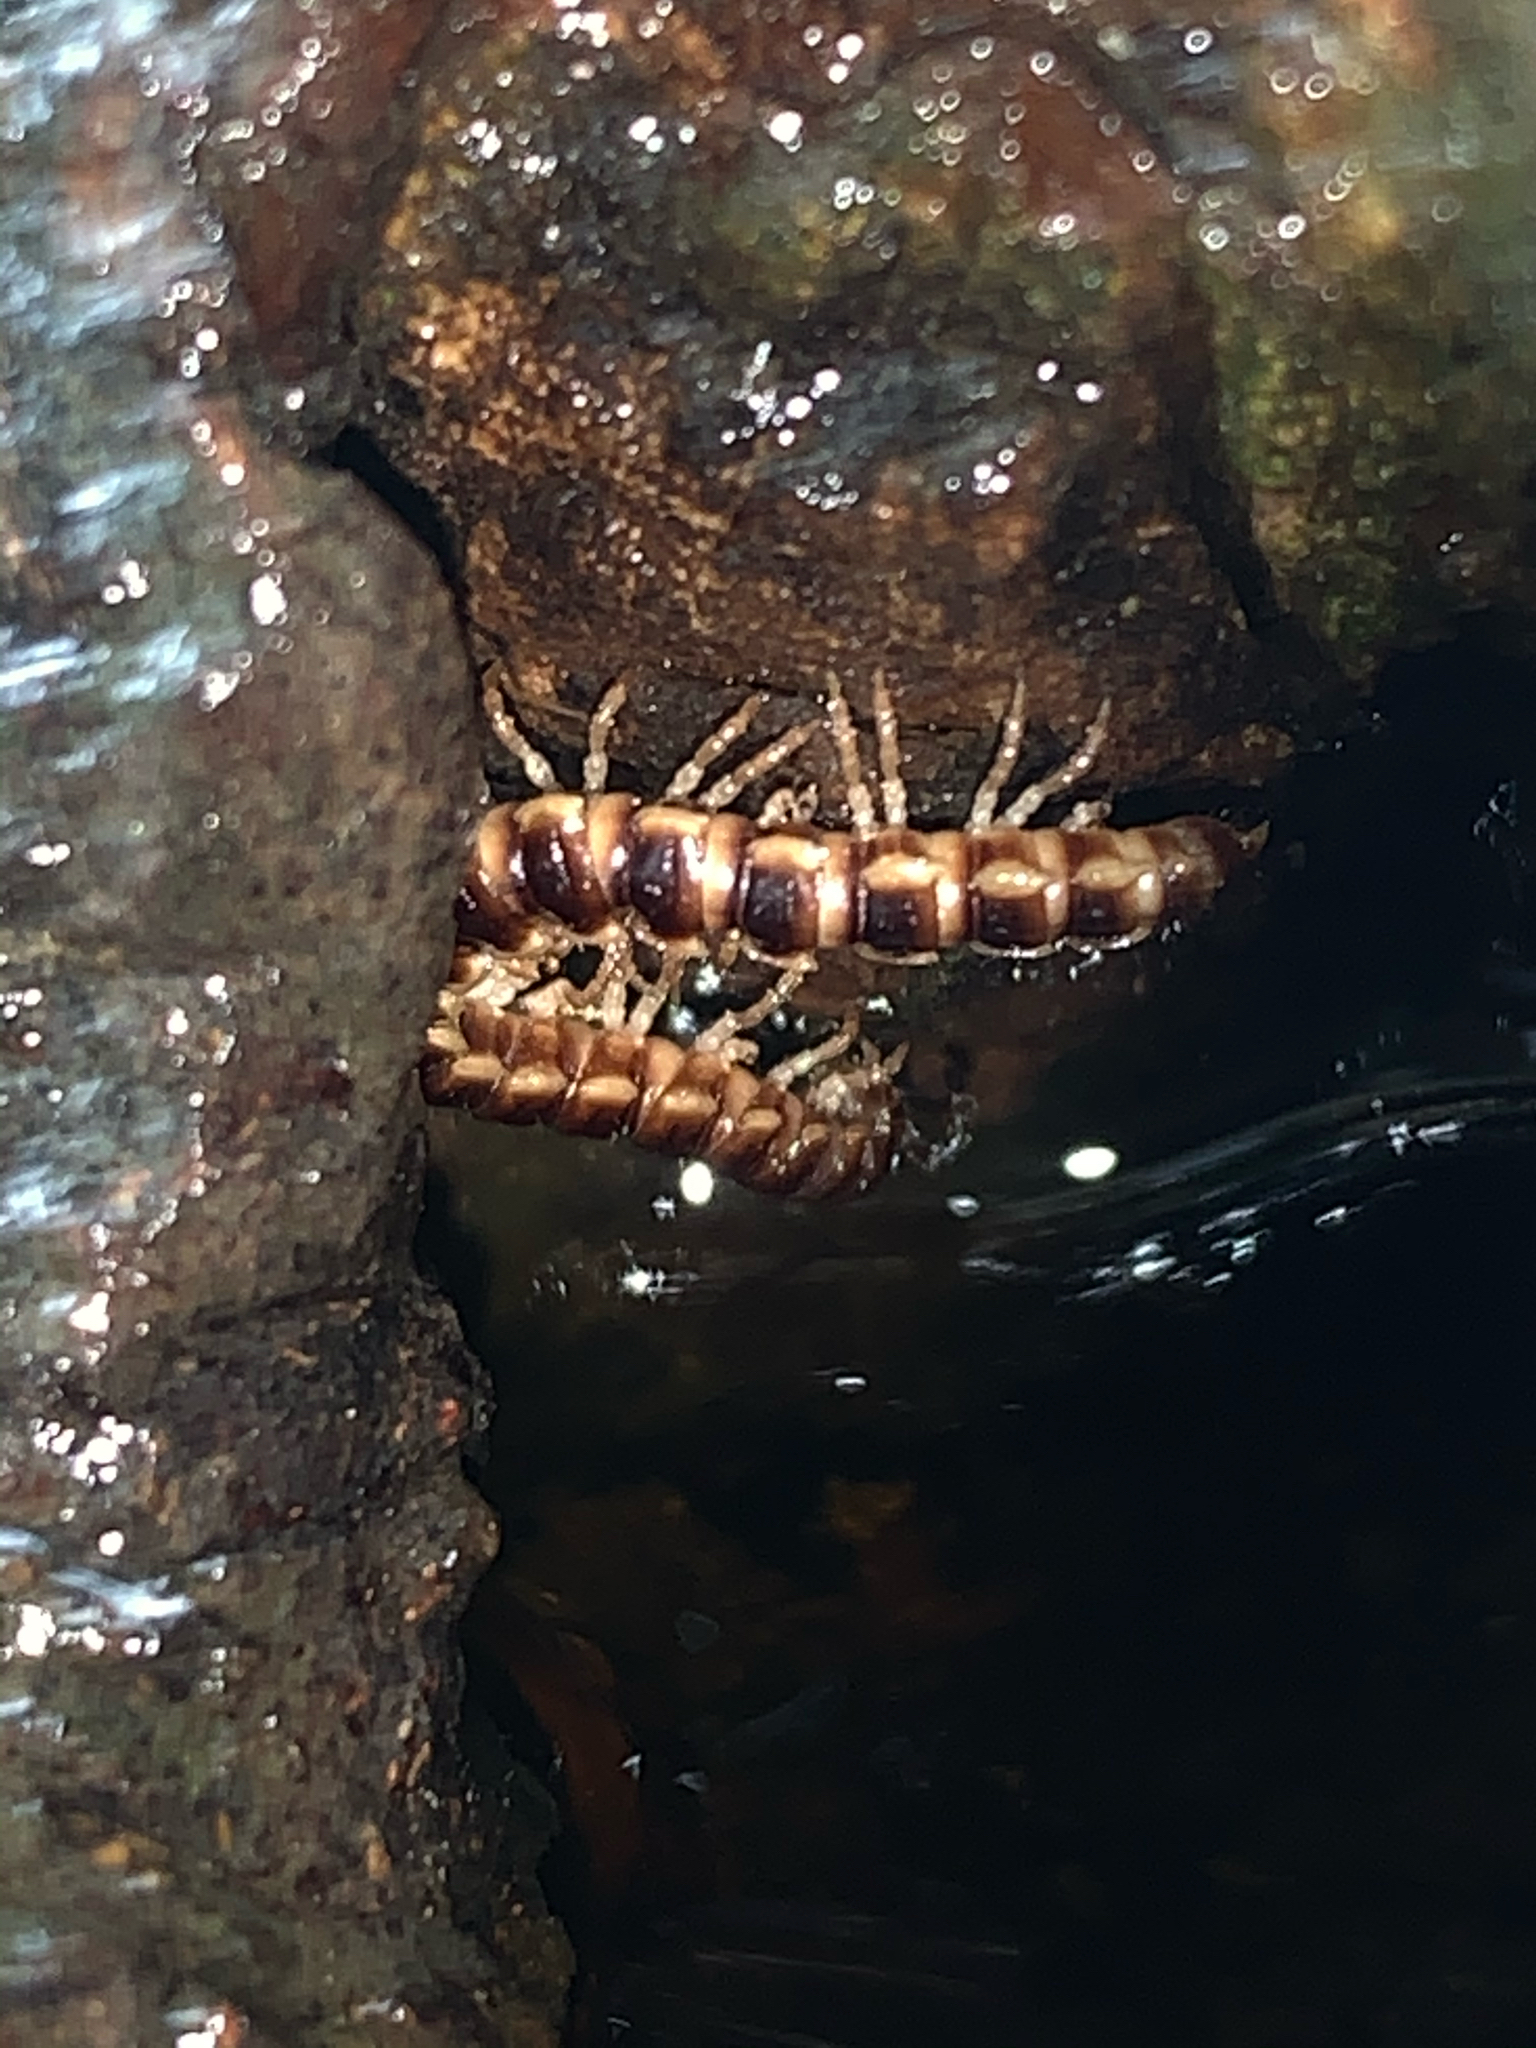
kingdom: Animalia
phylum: Arthropoda
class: Diplopoda
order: Polydesmida
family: Paradoxosomatidae
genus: Oxidus
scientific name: Oxidus gracilis
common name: Greenhouse millipede
